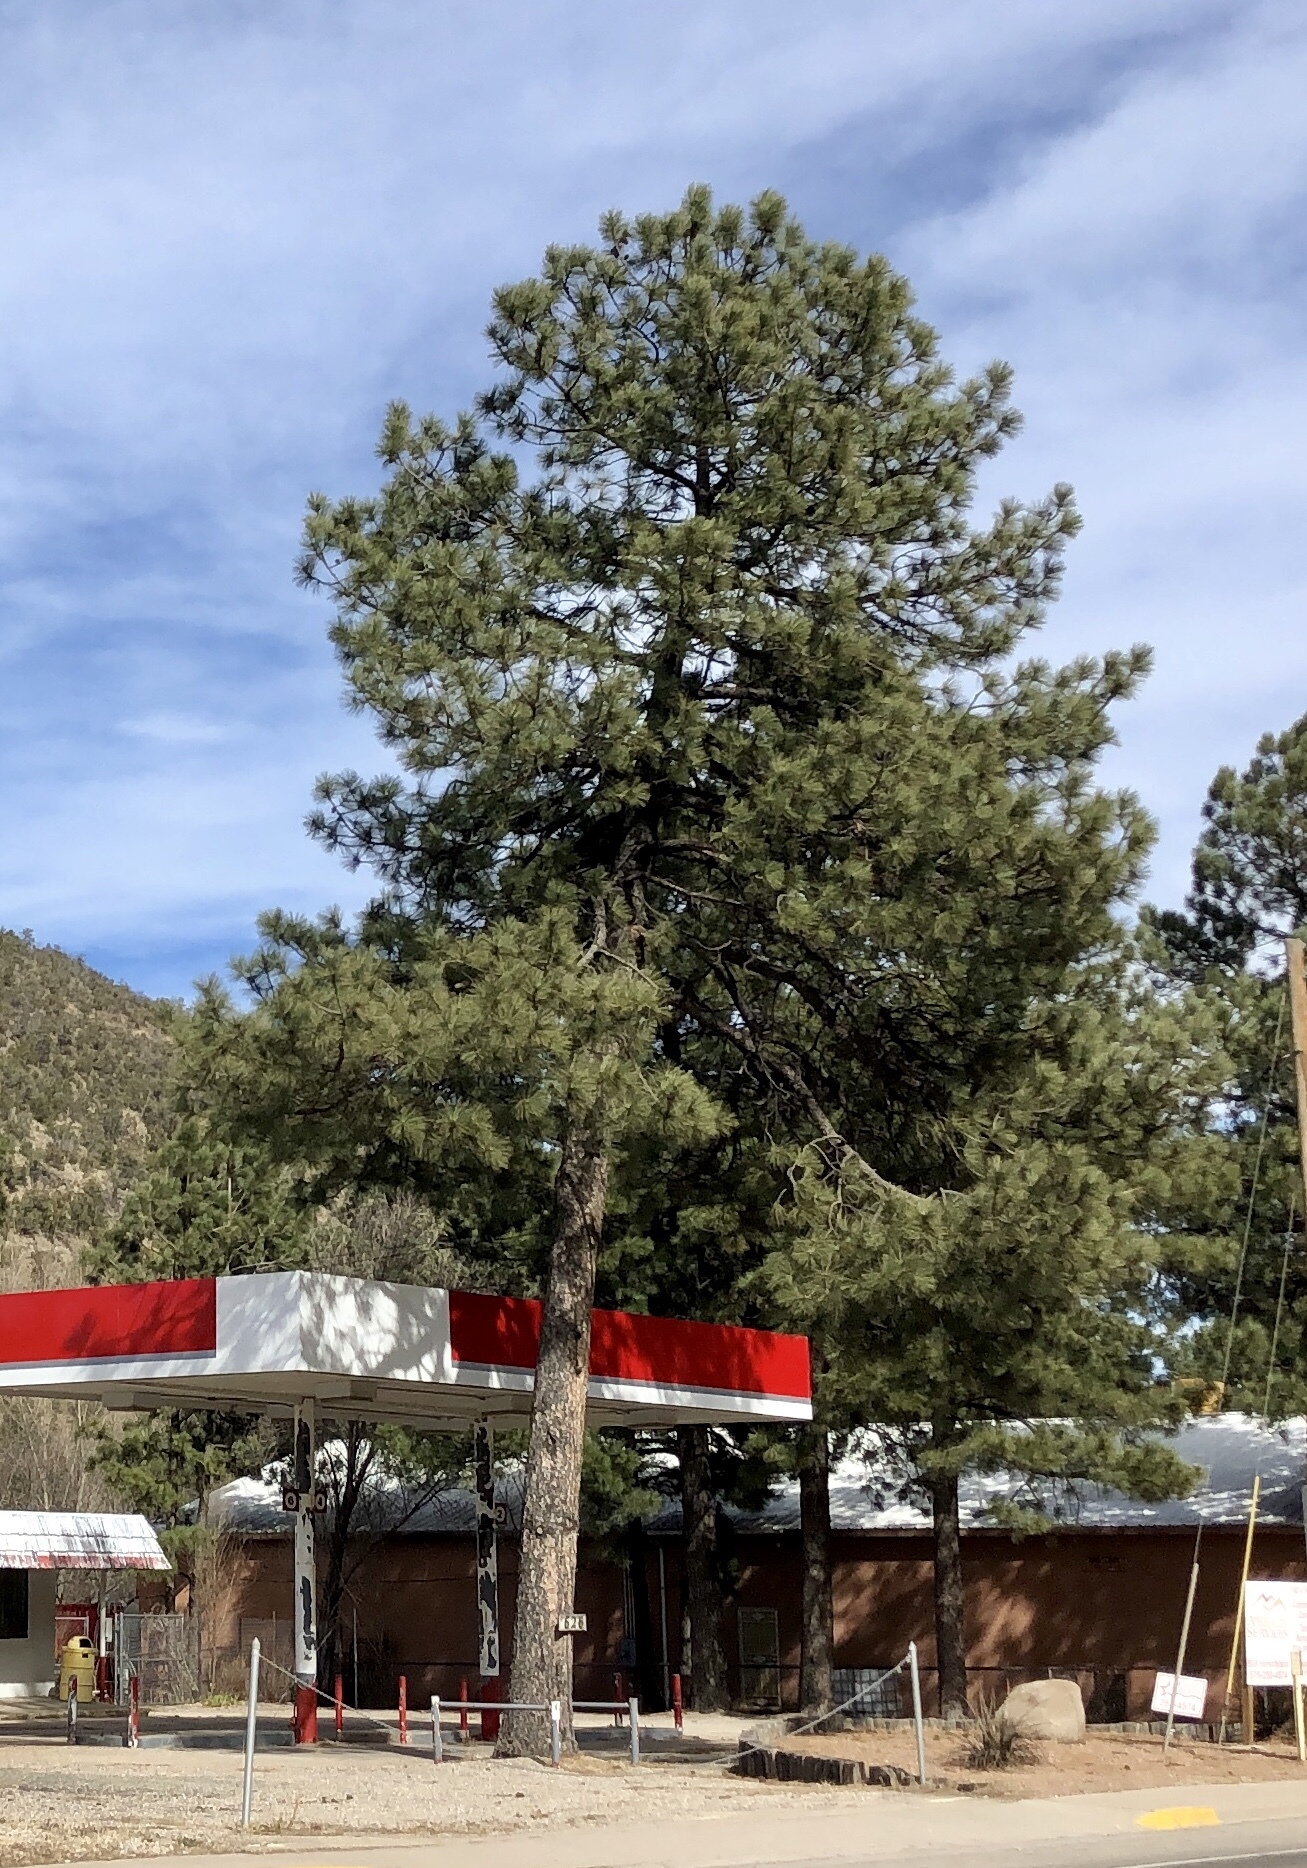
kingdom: Plantae
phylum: Tracheophyta
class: Pinopsida
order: Pinales
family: Pinaceae
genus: Pinus
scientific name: Pinus ponderosa
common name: Western yellow-pine
